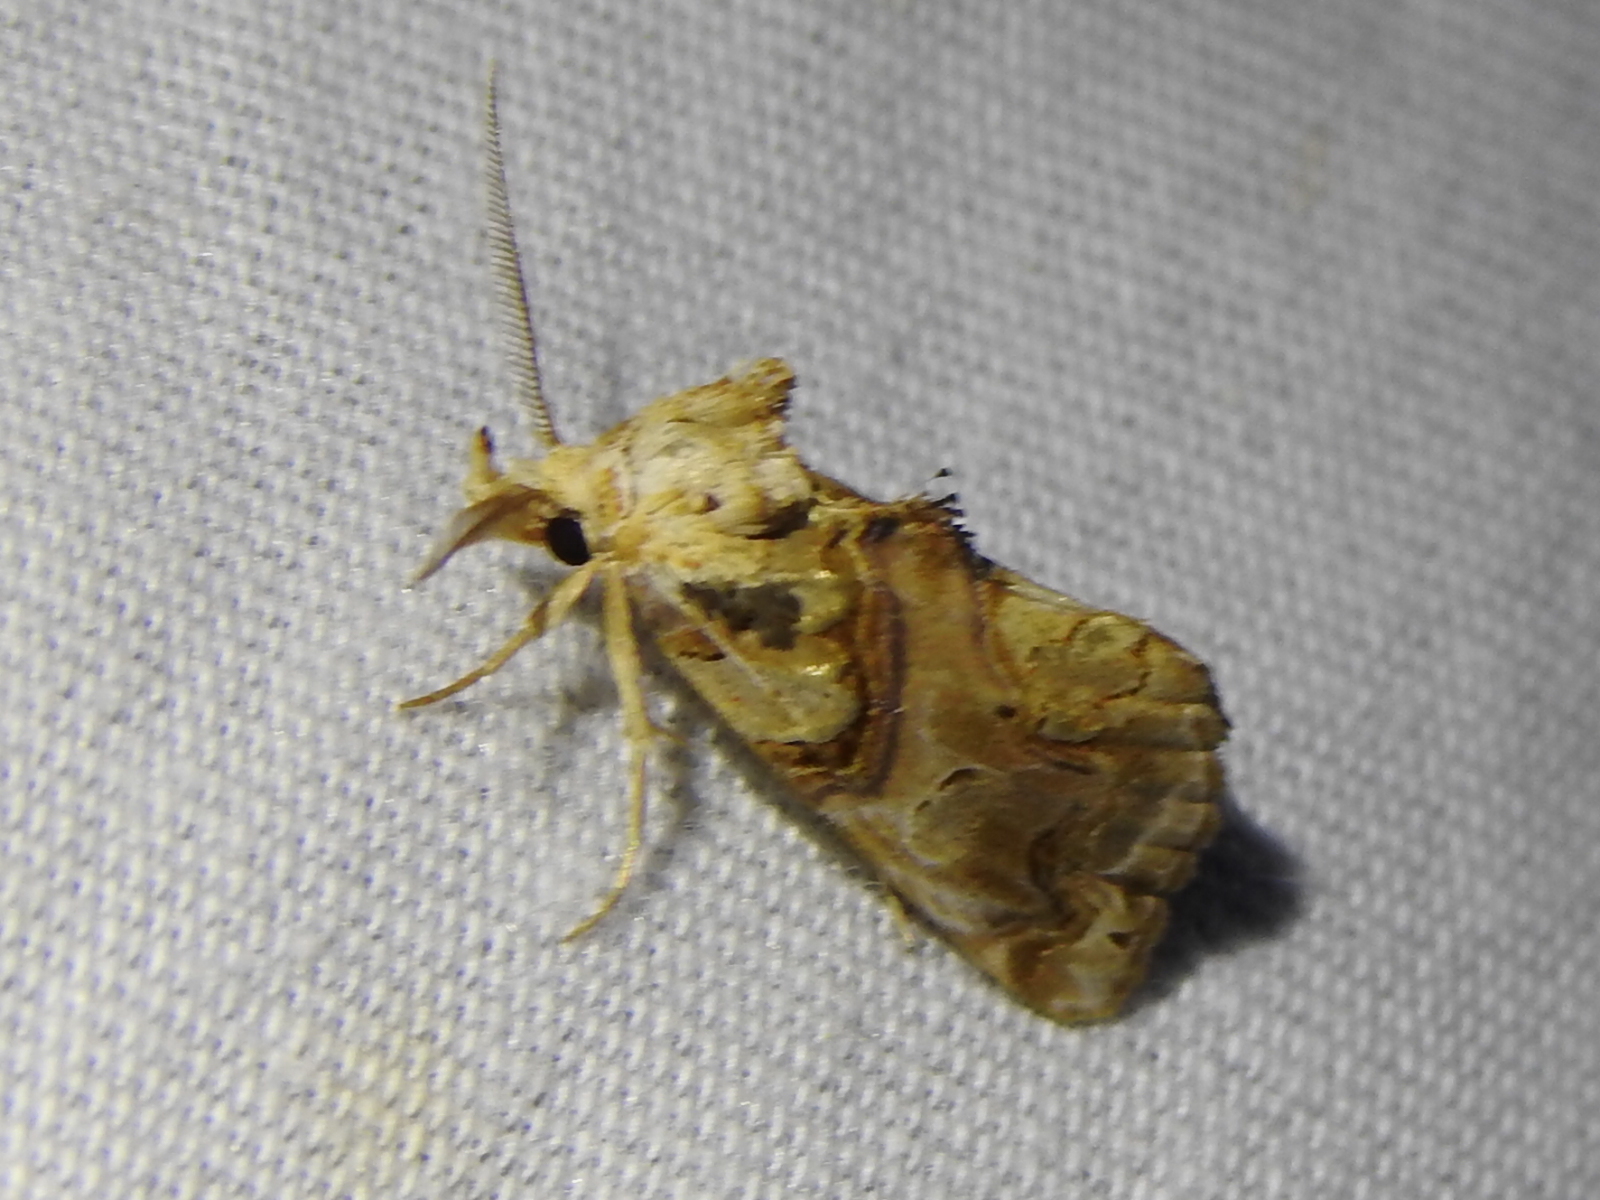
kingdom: Animalia
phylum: Arthropoda
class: Insecta
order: Lepidoptera
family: Erebidae
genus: Plusiodonta
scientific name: Plusiodonta compressipalpis
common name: Moonseed moth
